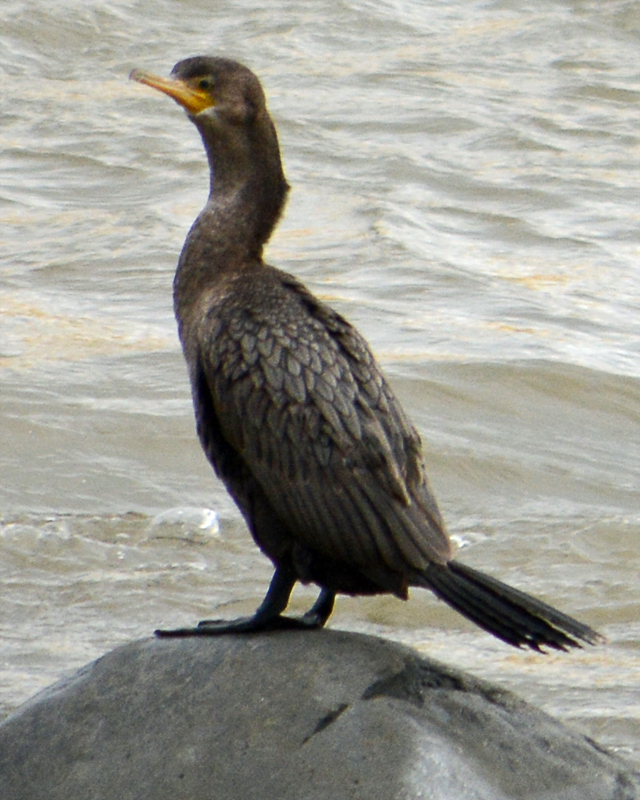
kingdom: Animalia
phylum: Chordata
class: Aves
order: Suliformes
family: Phalacrocoracidae
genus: Phalacrocorax
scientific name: Phalacrocorax brasilianus
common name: Neotropic cormorant
